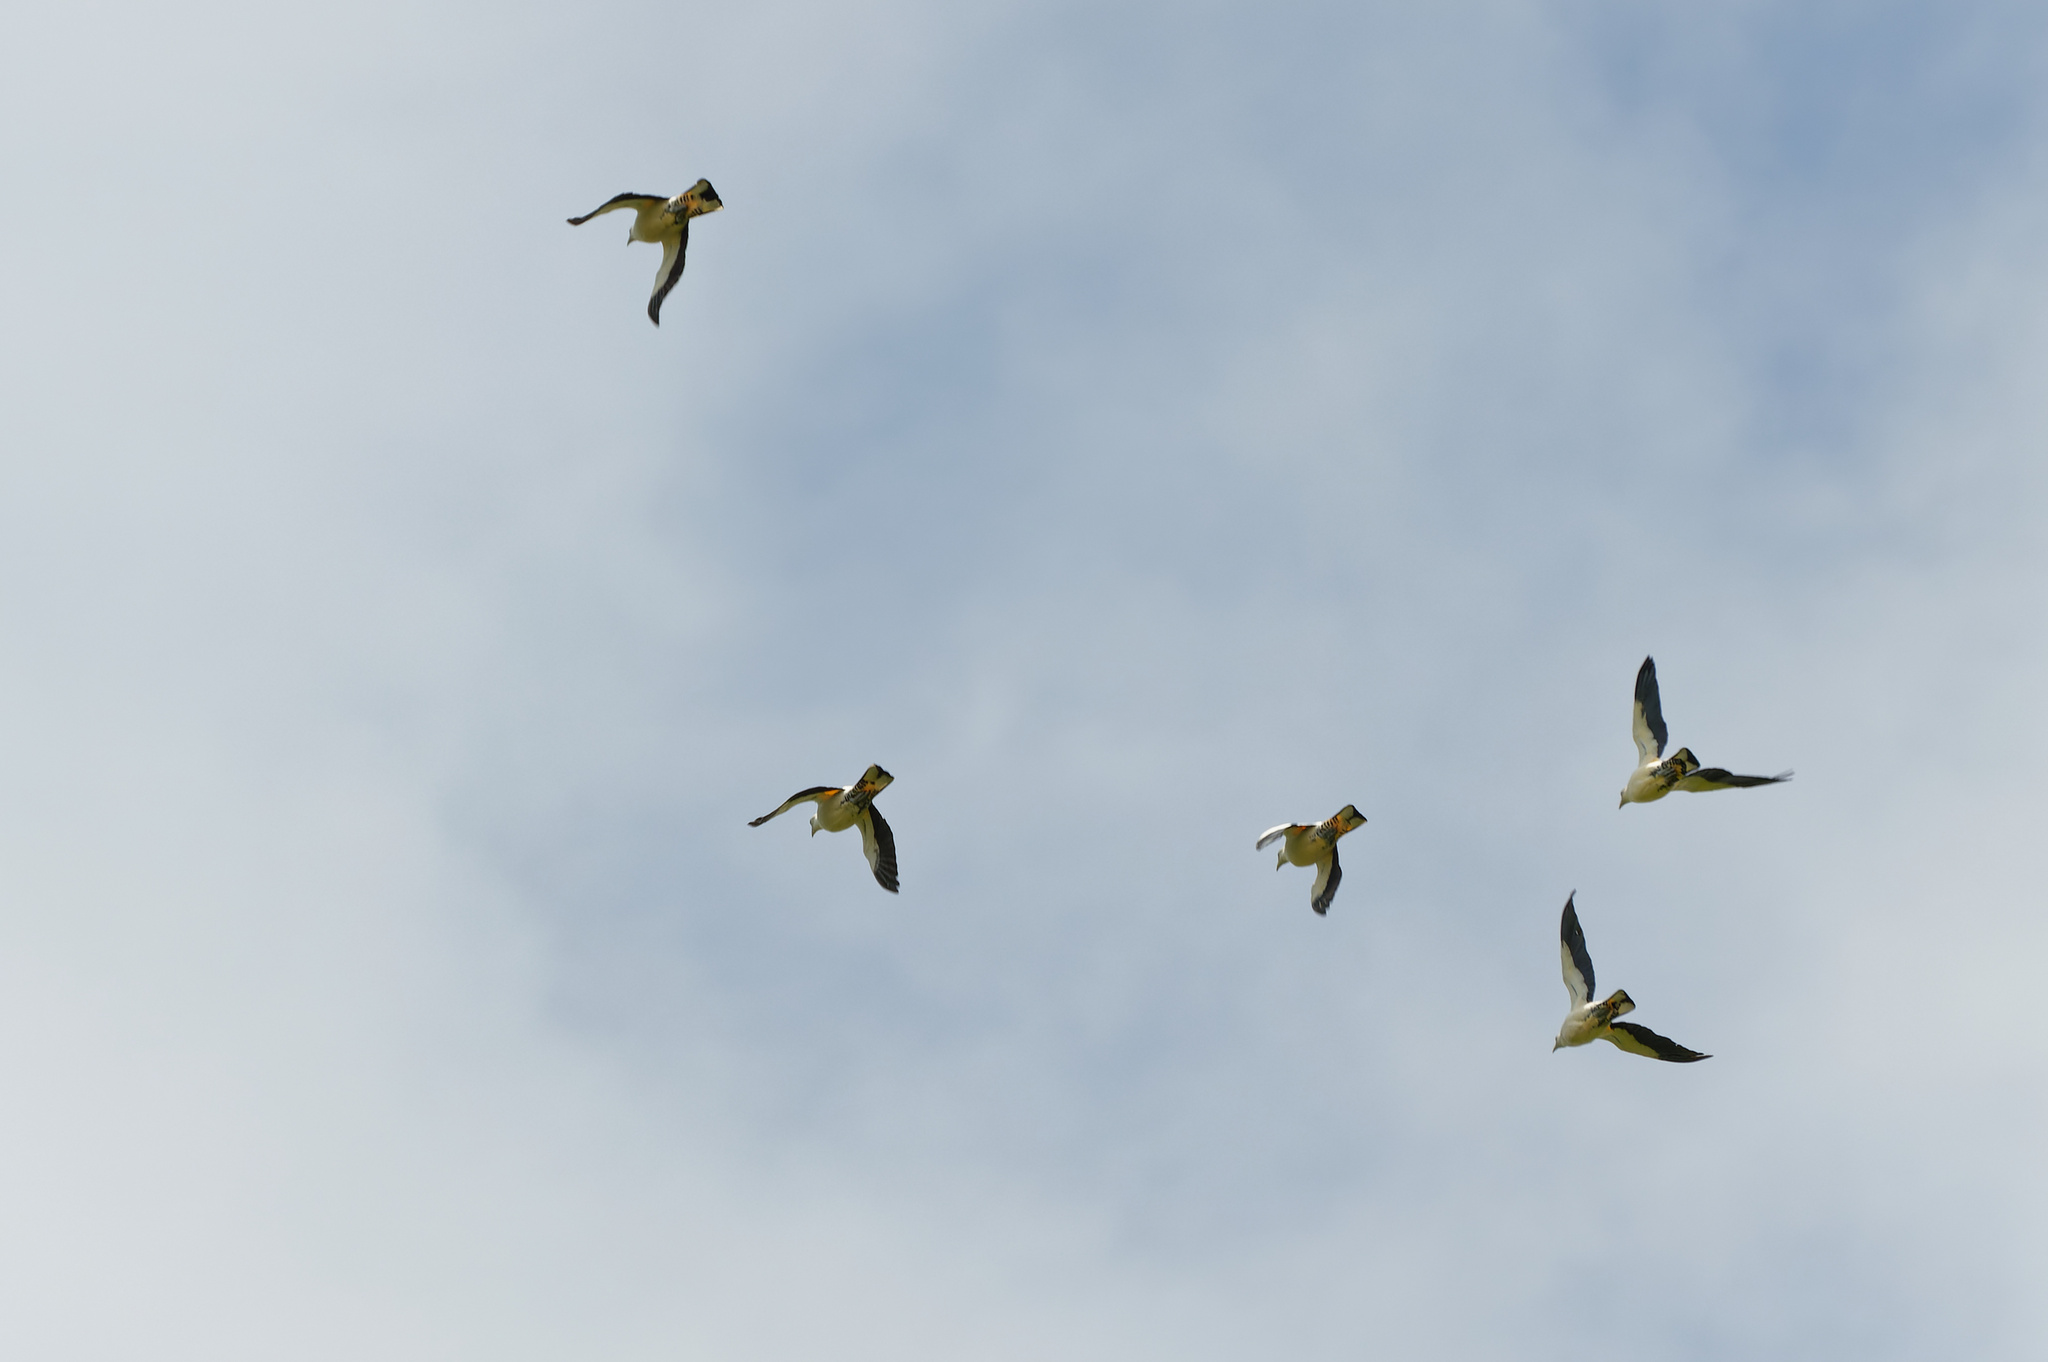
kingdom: Animalia
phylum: Chordata
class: Aves
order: Columbiformes
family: Columbidae
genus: Ducula
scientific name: Ducula spilorrhoa
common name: Torresian imperial pigeon
